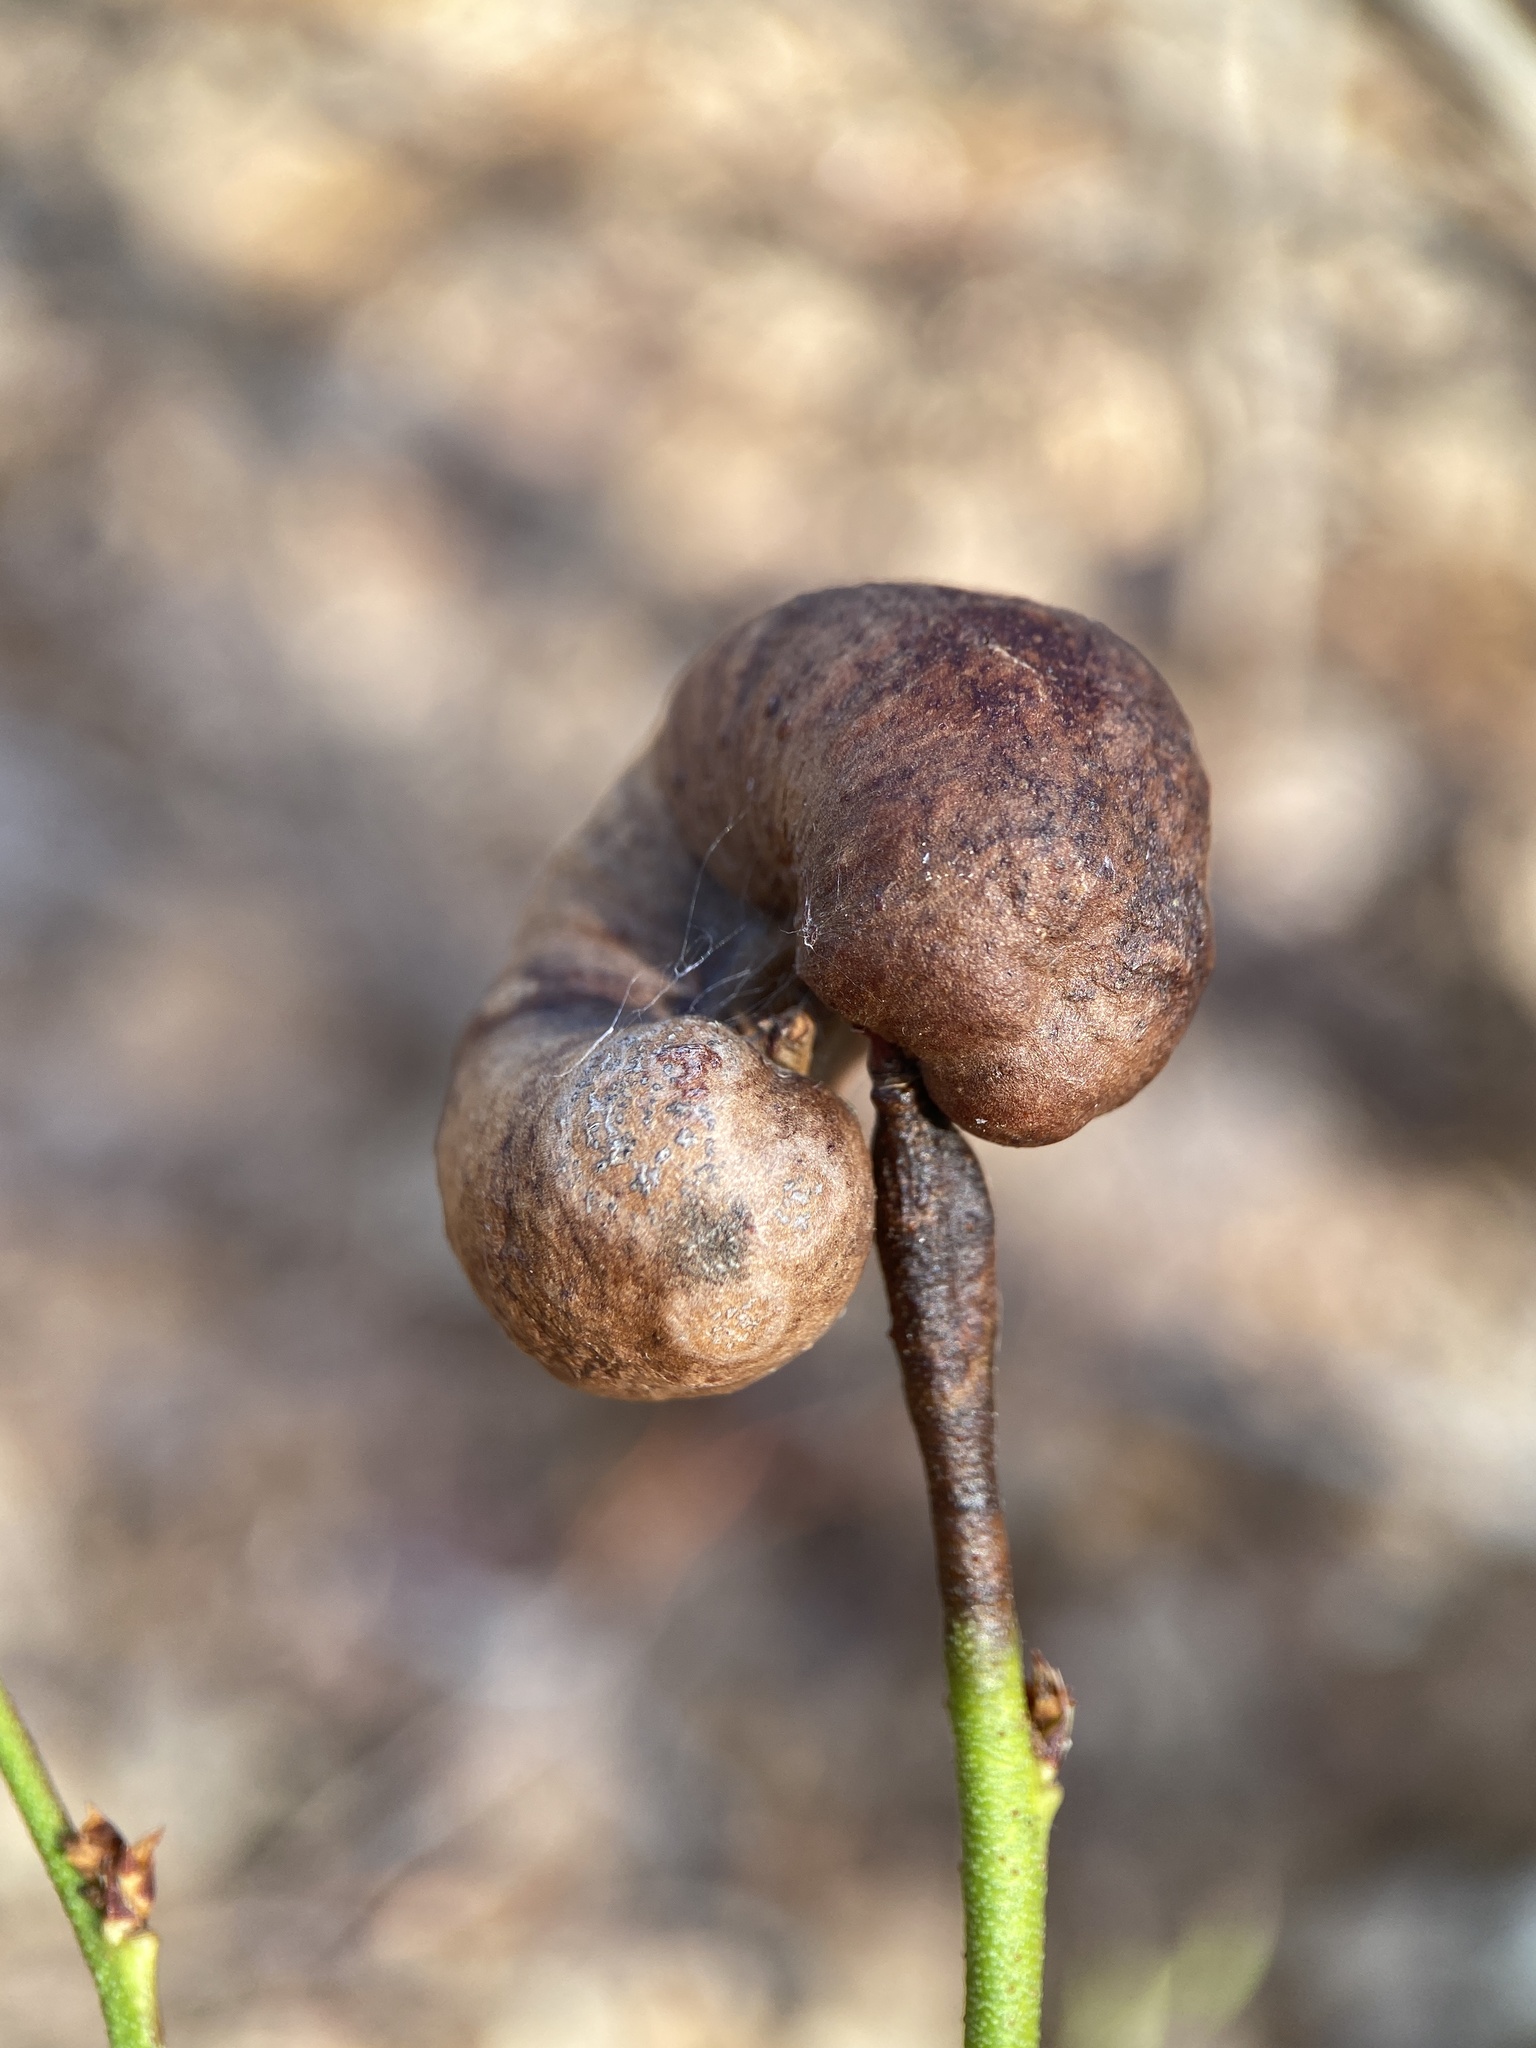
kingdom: Animalia
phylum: Arthropoda
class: Insecta
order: Hymenoptera
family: Pteromalidae
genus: Hemadas
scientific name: Hemadas nubilipennis
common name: Blueberry stem gall wasp
